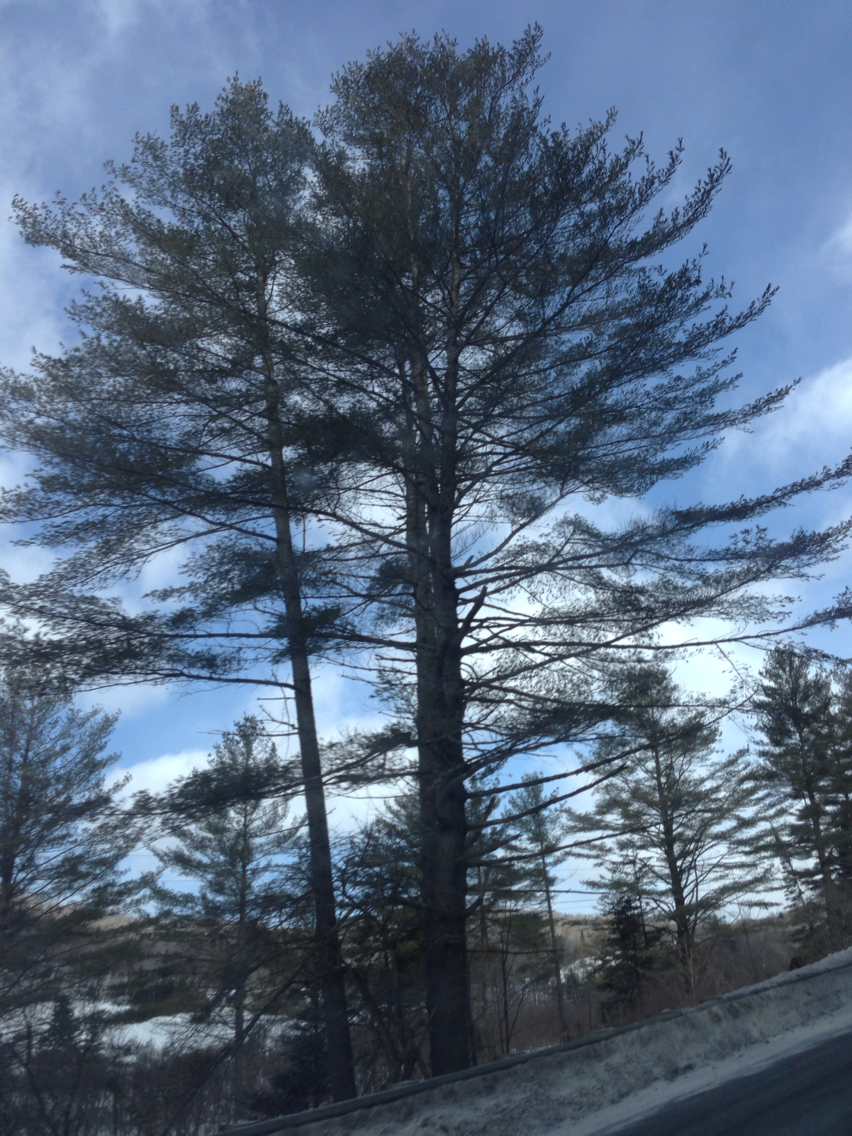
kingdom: Plantae
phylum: Tracheophyta
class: Pinopsida
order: Pinales
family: Pinaceae
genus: Pinus
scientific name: Pinus strobus
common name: Weymouth pine
